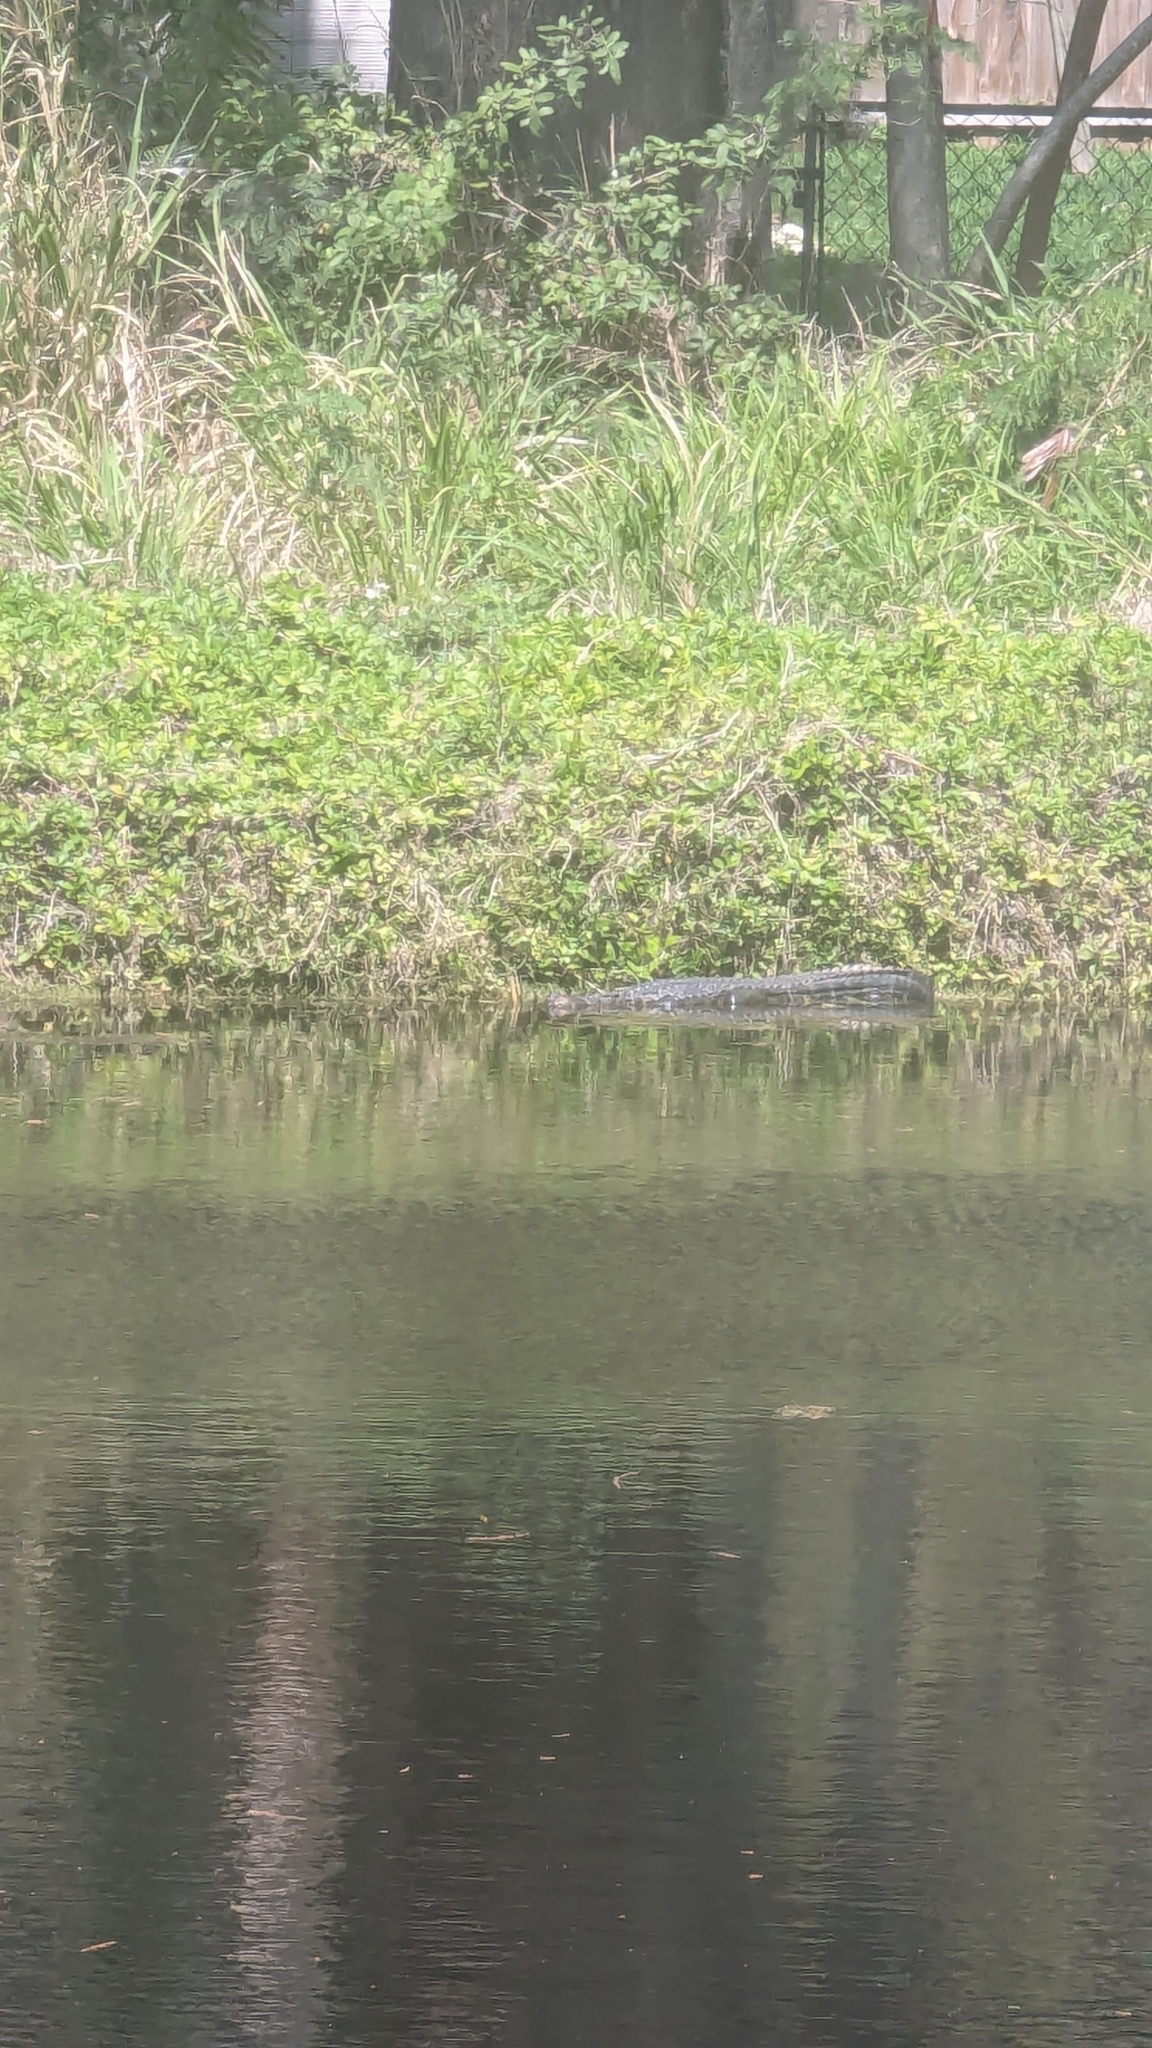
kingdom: Animalia
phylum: Chordata
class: Crocodylia
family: Alligatoridae
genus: Alligator
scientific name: Alligator mississippiensis
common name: American alligator
